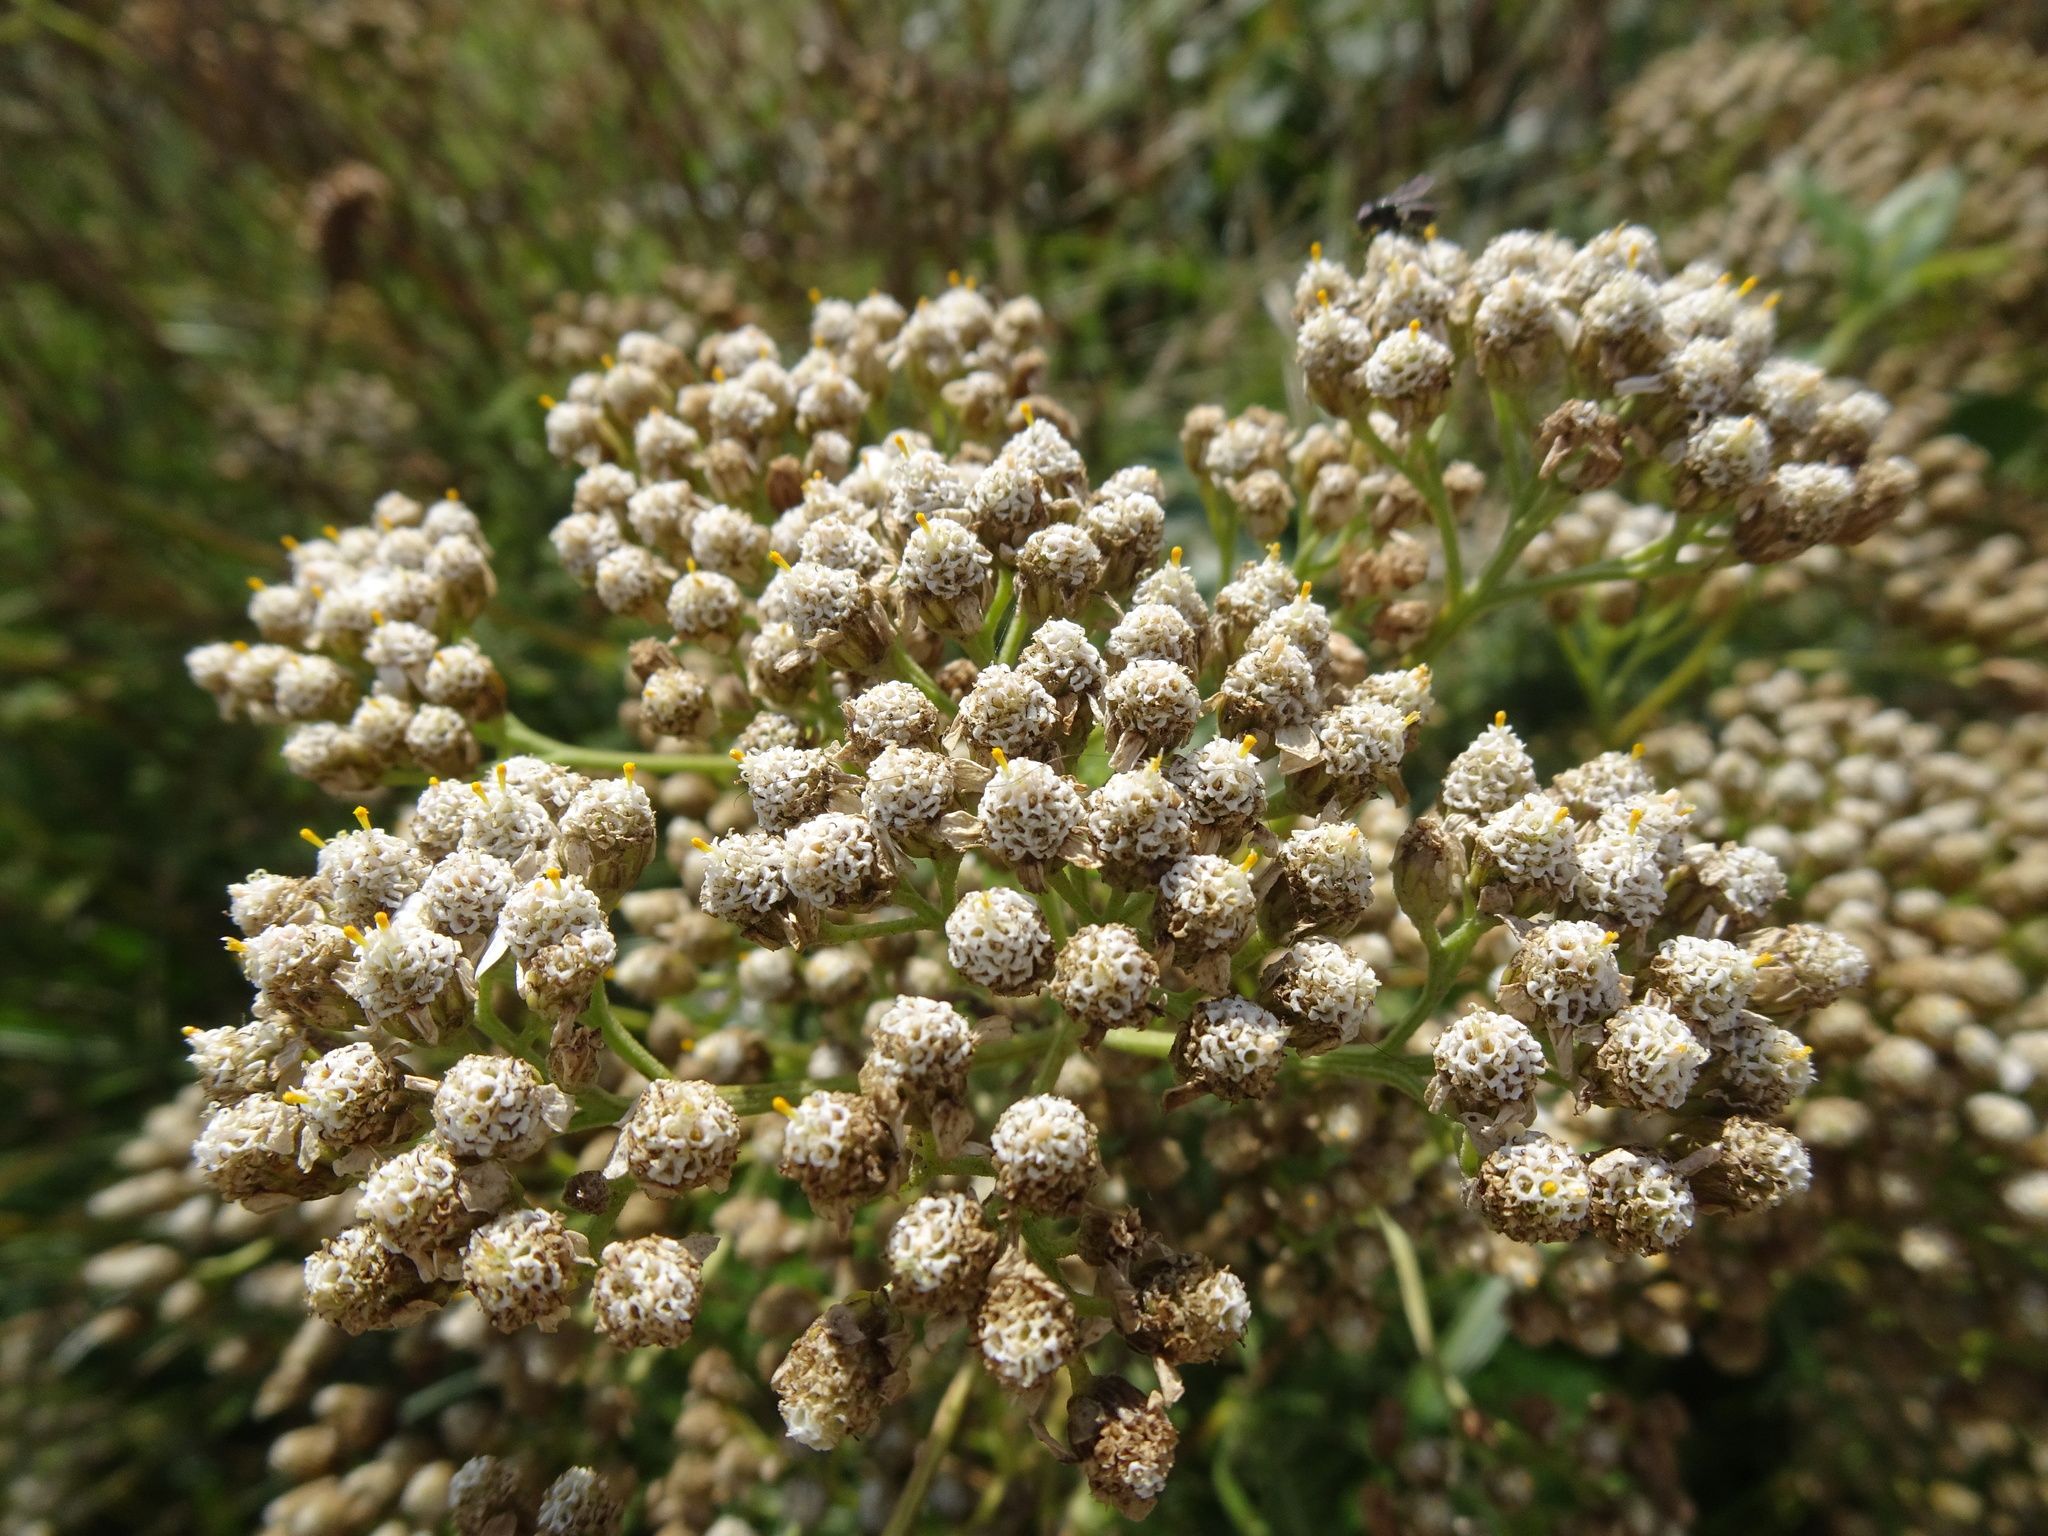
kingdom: Plantae
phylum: Tracheophyta
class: Magnoliopsida
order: Asterales
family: Asteraceae
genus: Achillea
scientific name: Achillea millefolium
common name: Yarrow
